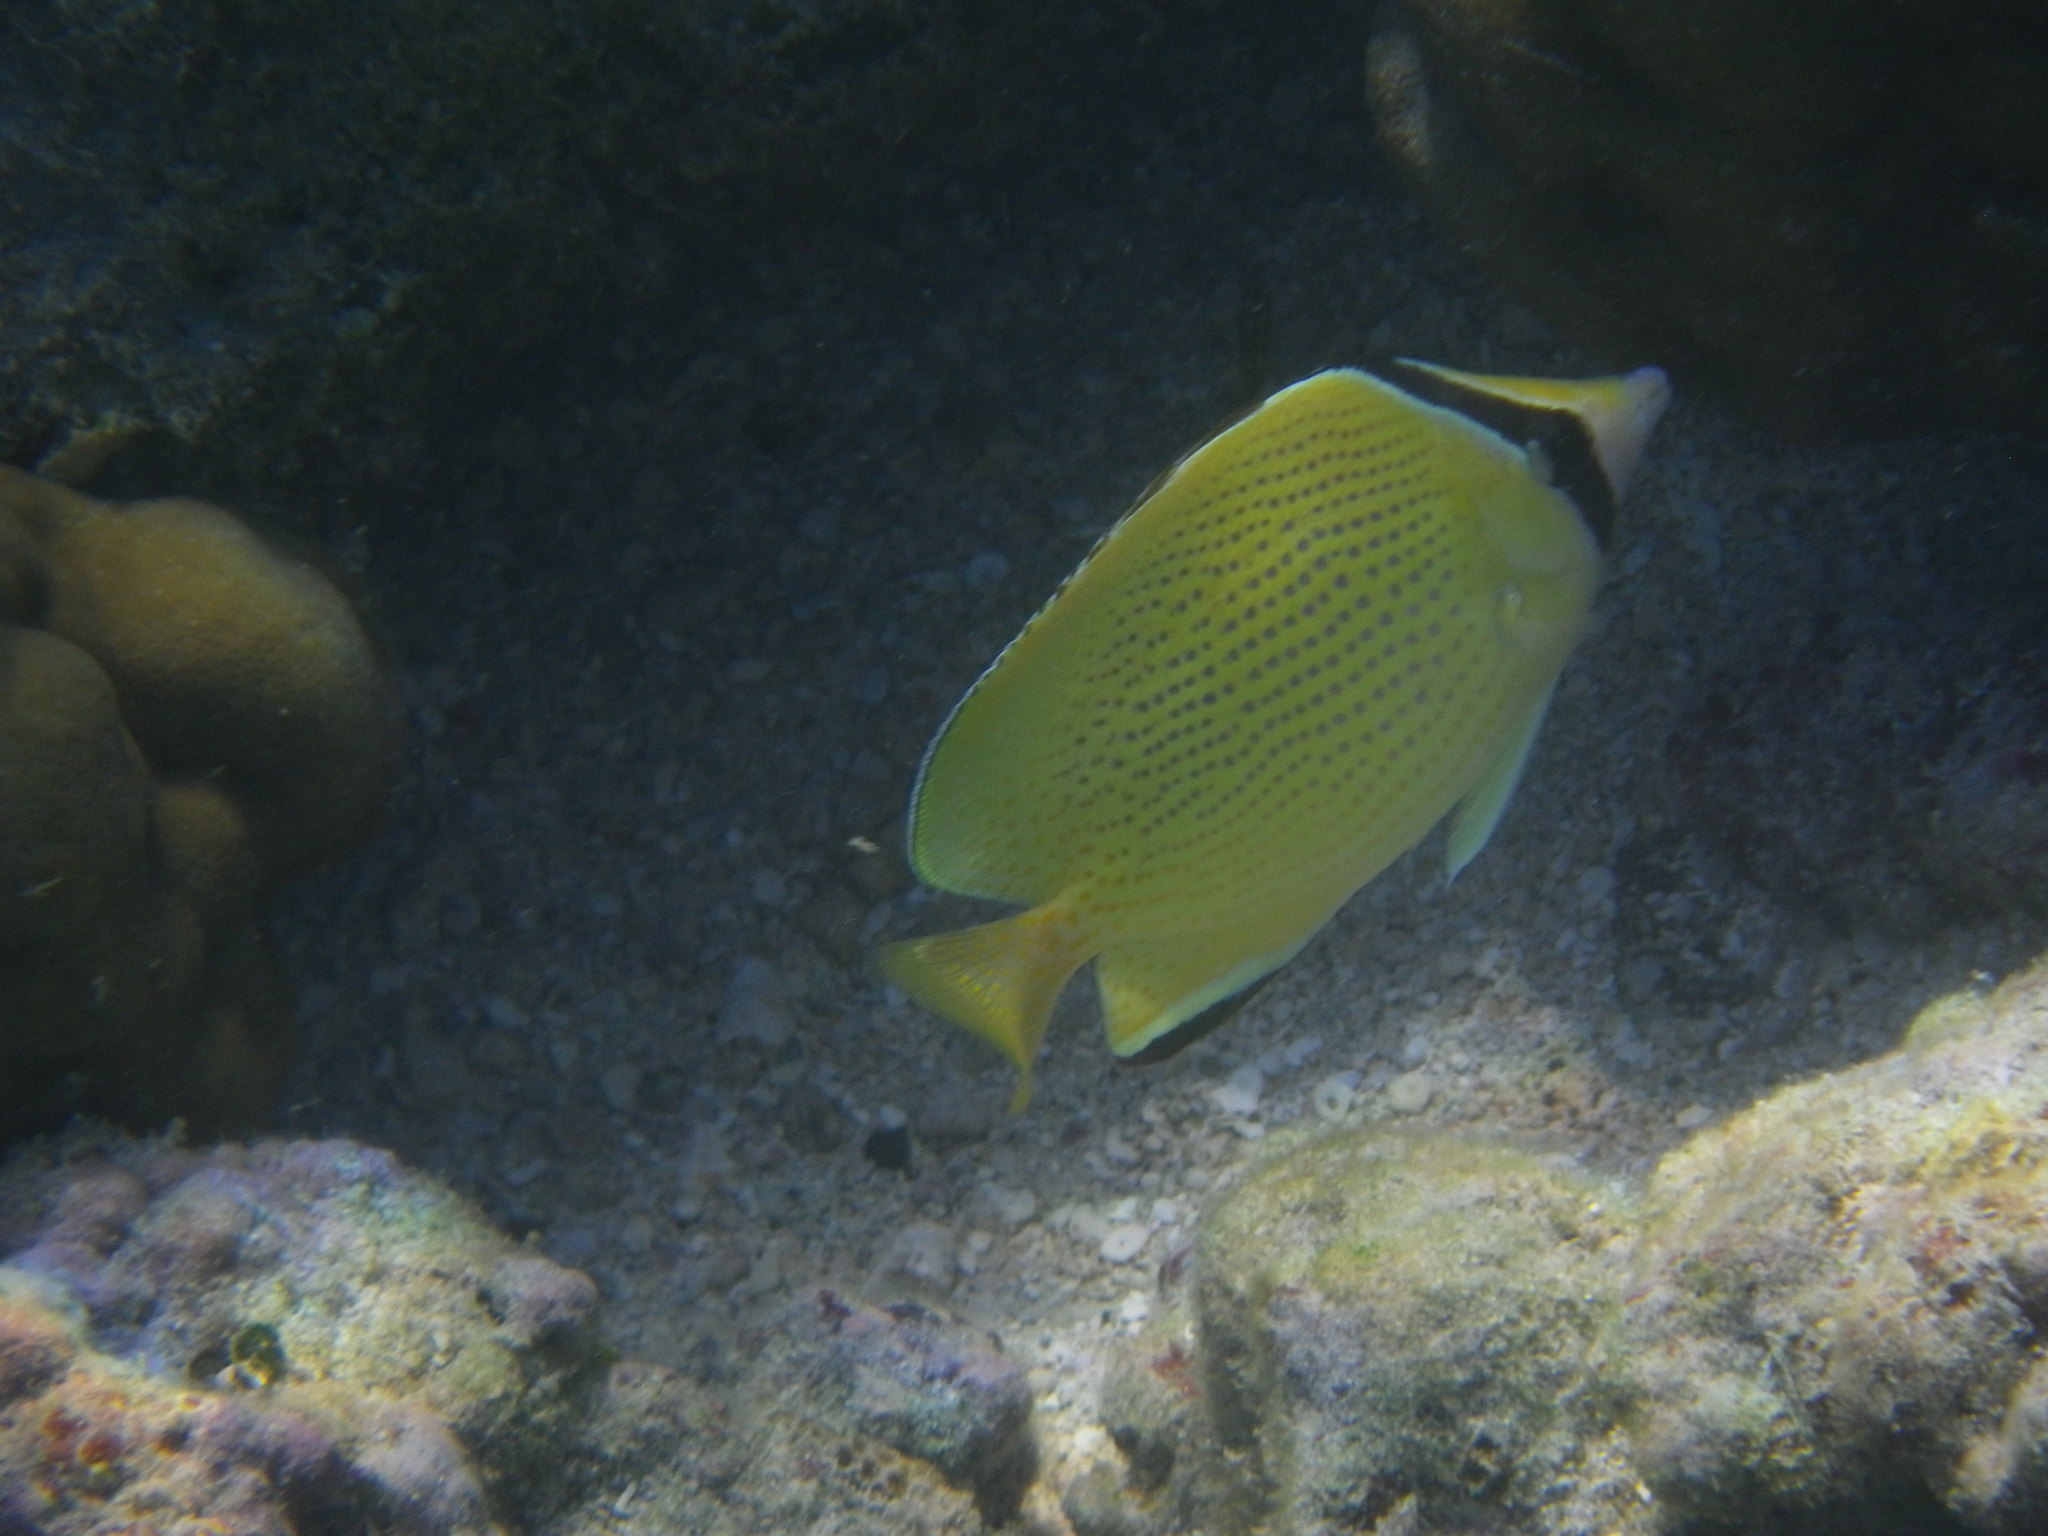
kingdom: Animalia
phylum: Chordata
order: Perciformes
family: Chaetodontidae
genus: Chaetodon
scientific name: Chaetodon citrinellus
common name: Speckled butterflyfish
